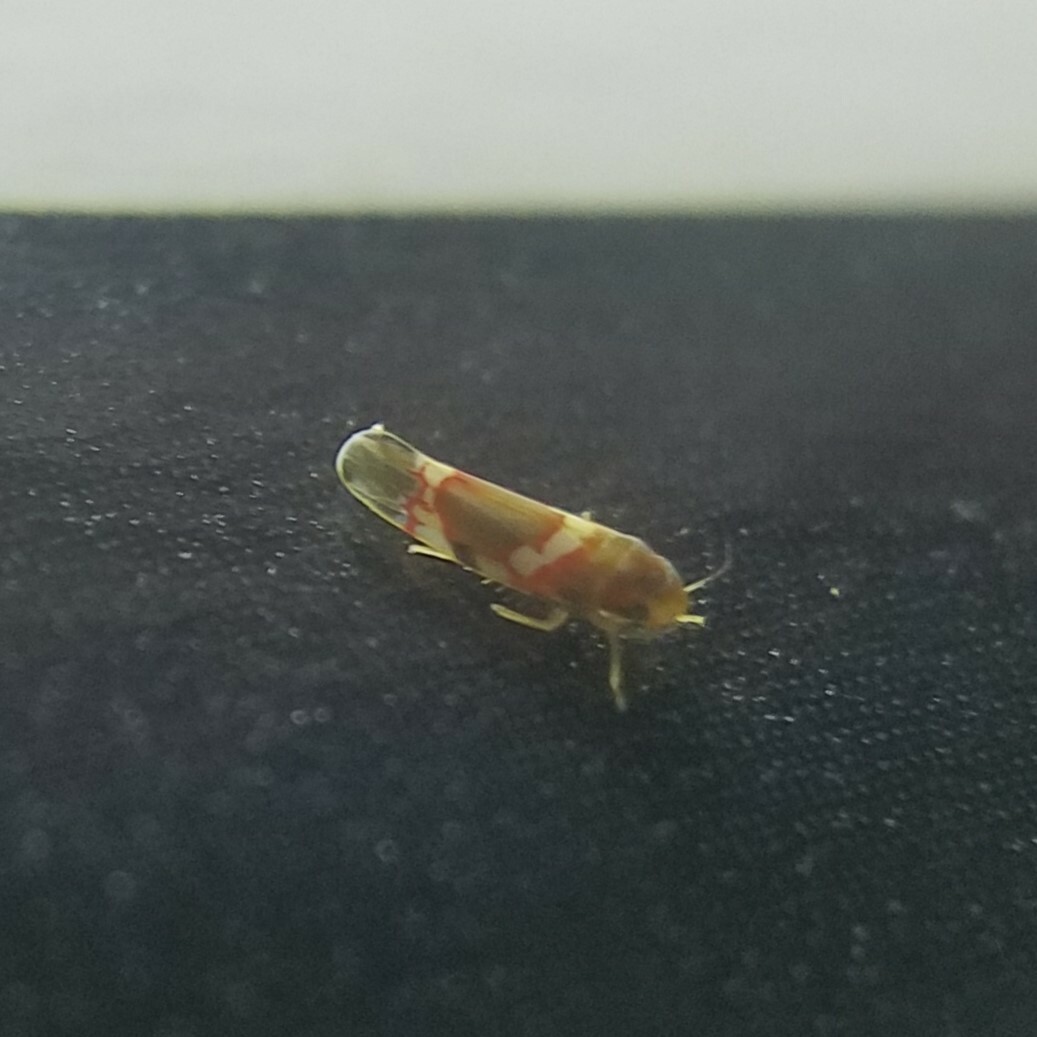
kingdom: Animalia
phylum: Arthropoda
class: Insecta
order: Hemiptera
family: Cicadellidae
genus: Erythroneura
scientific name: Erythroneura vitis
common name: Grapevine leafhopper
